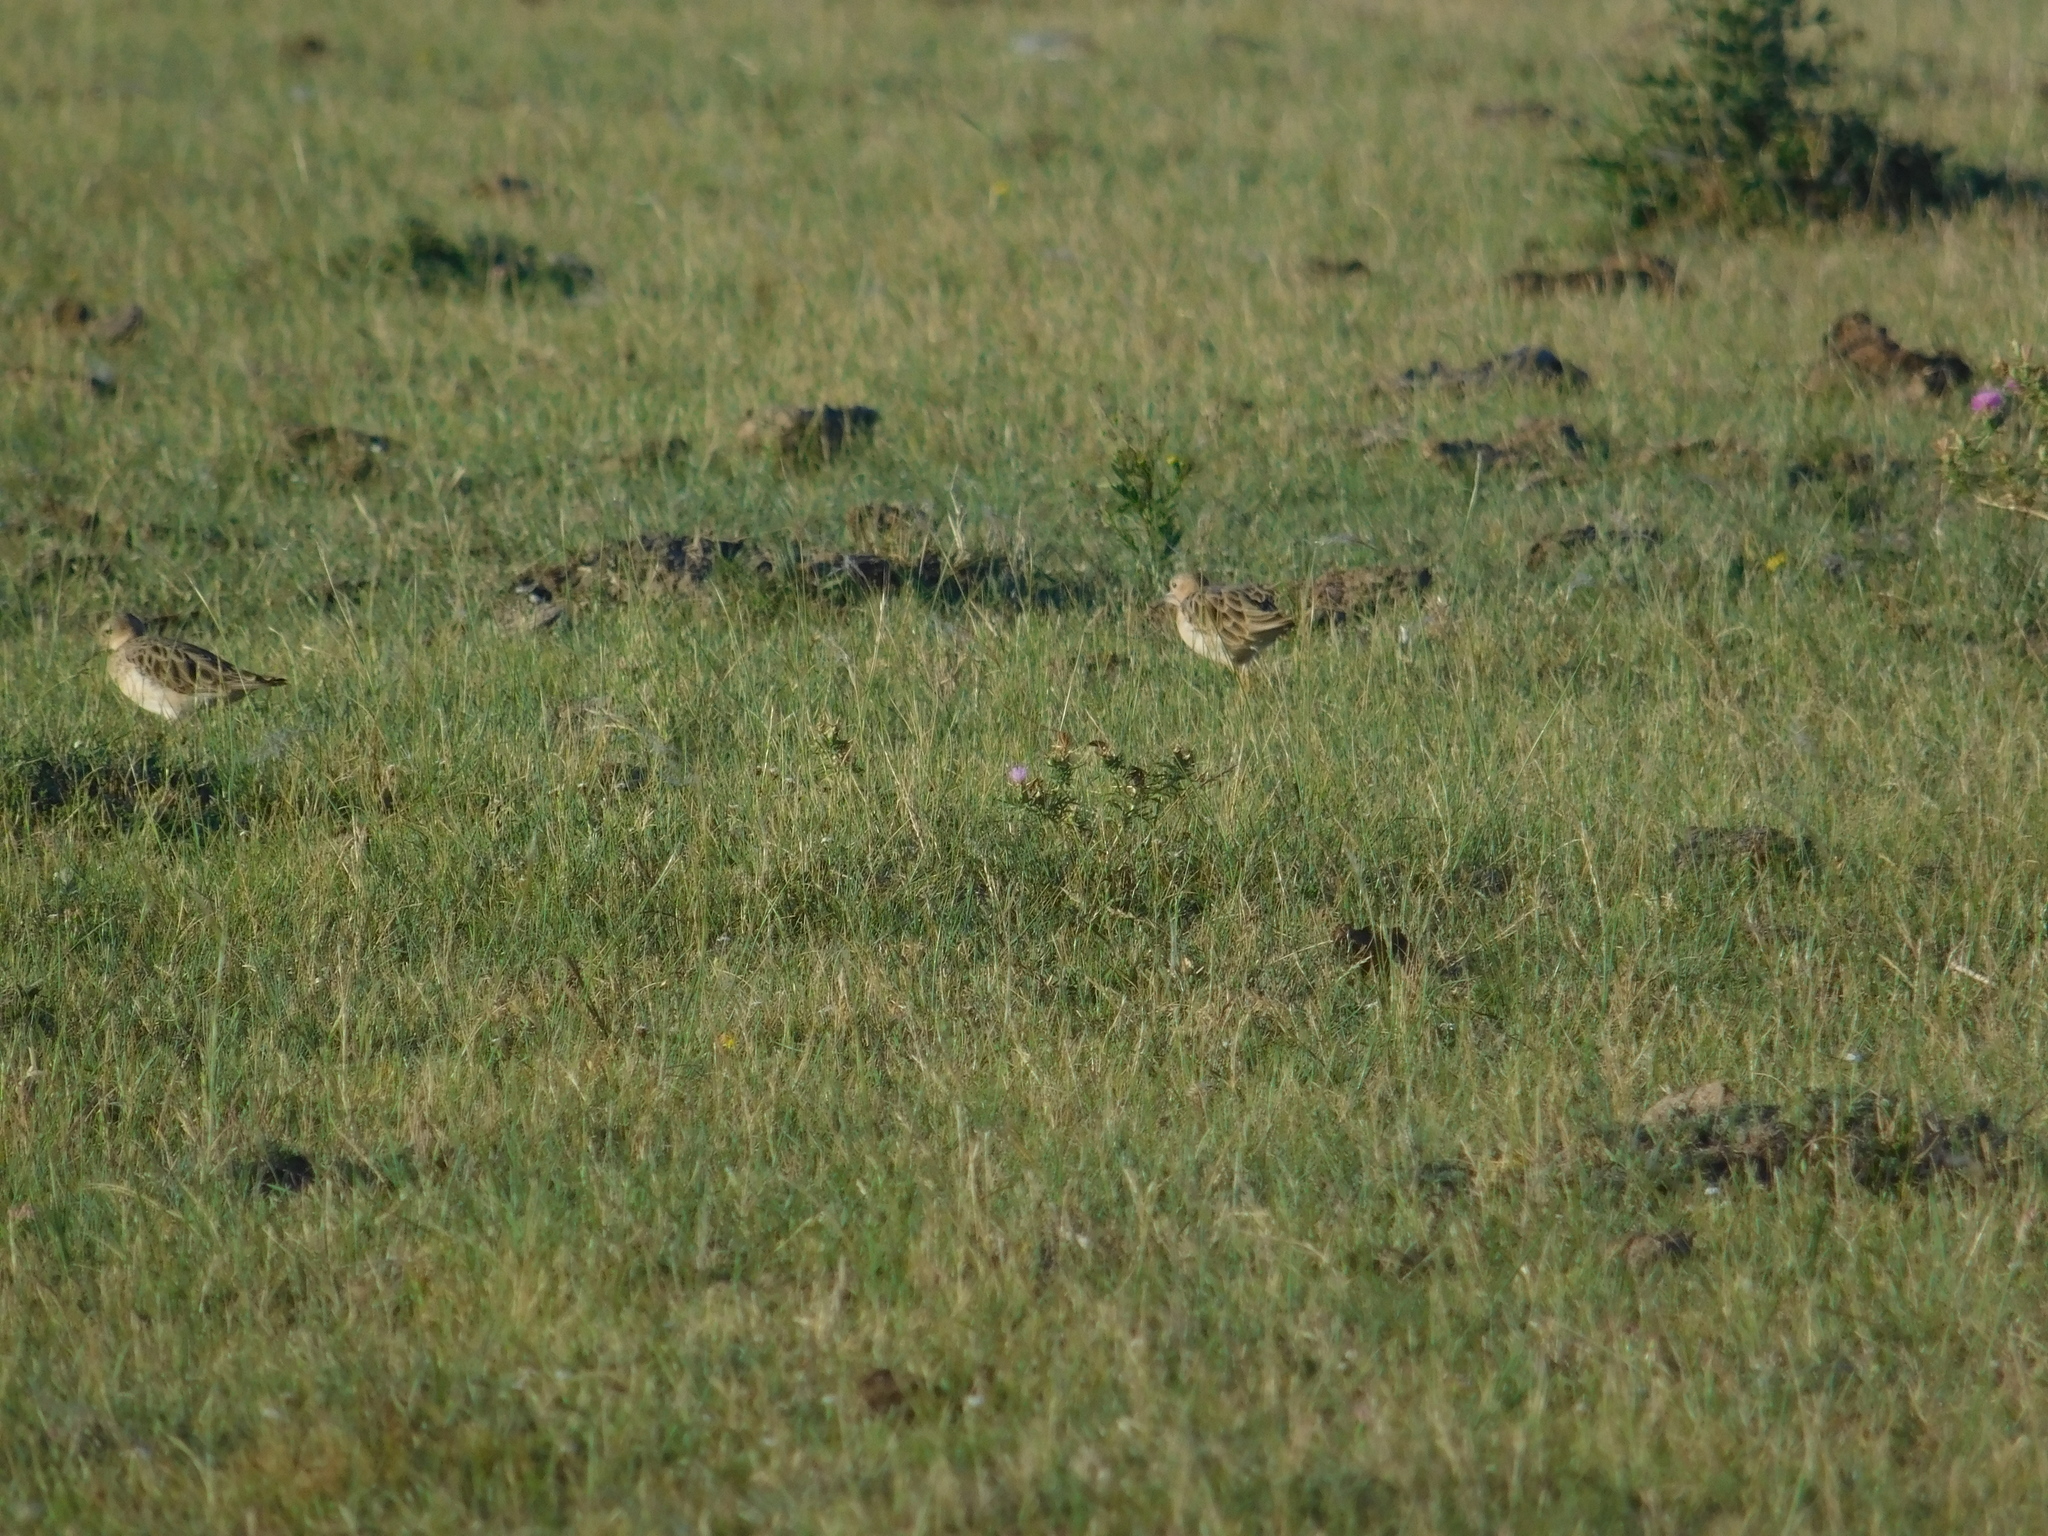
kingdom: Animalia
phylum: Chordata
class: Aves
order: Charadriiformes
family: Scolopacidae
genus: Calidris
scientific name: Calidris subruficollis
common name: Buff-breasted sandpiper
